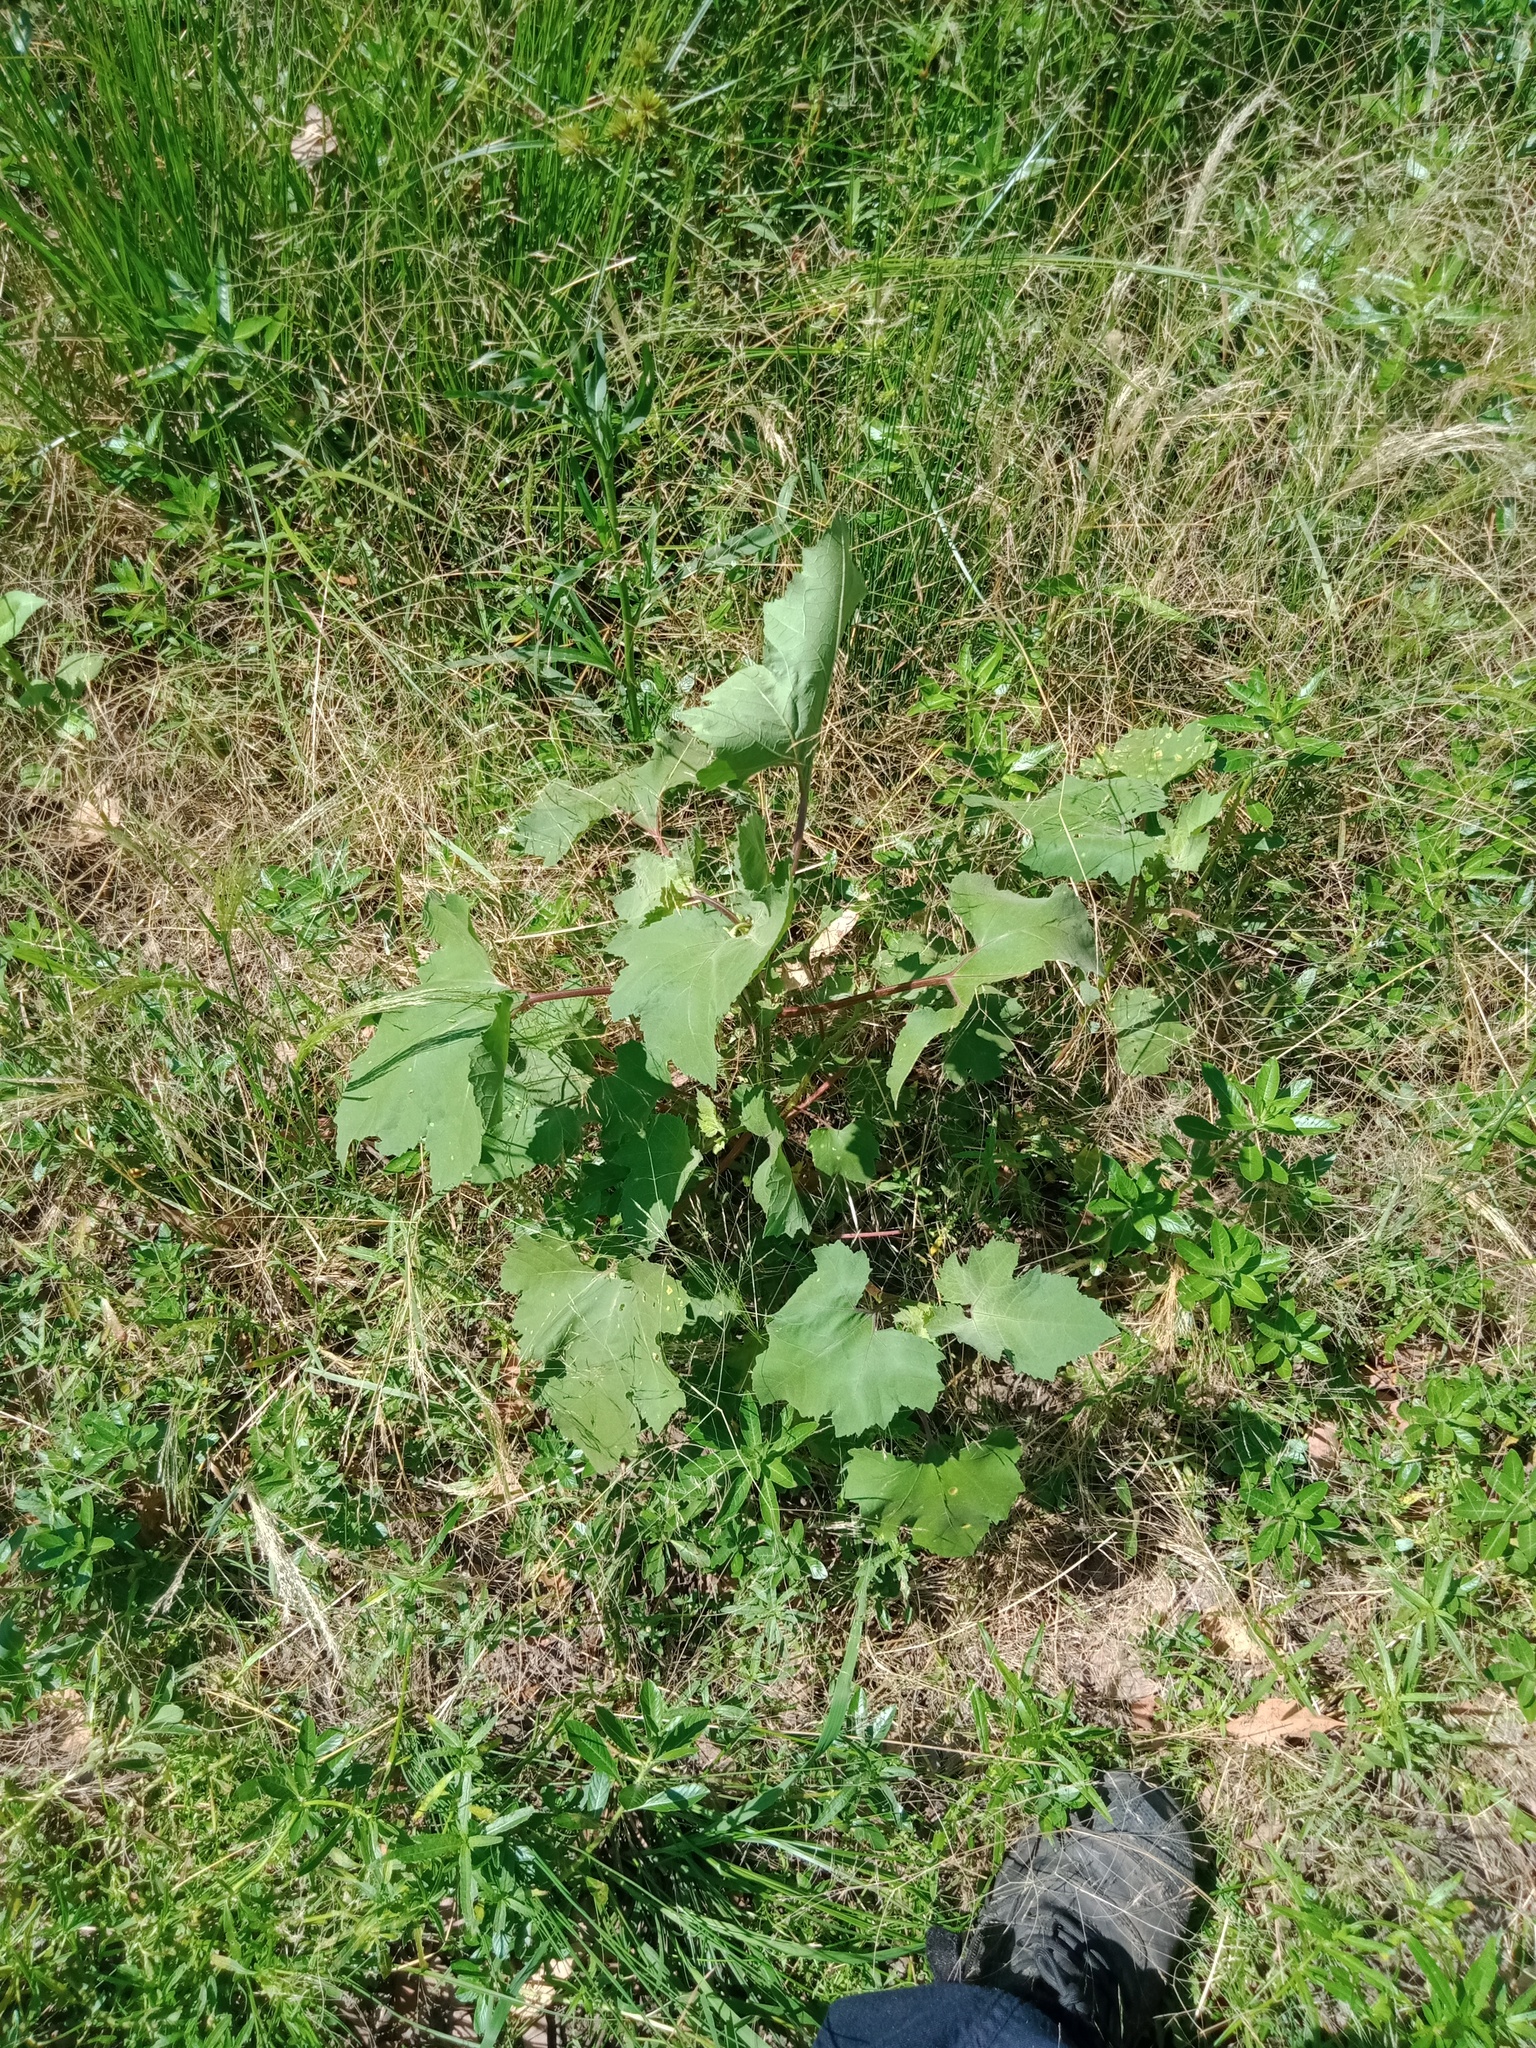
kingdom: Plantae
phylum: Tracheophyta
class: Magnoliopsida
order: Asterales
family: Asteraceae
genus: Xanthium
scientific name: Xanthium strumarium
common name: Rough cocklebur
